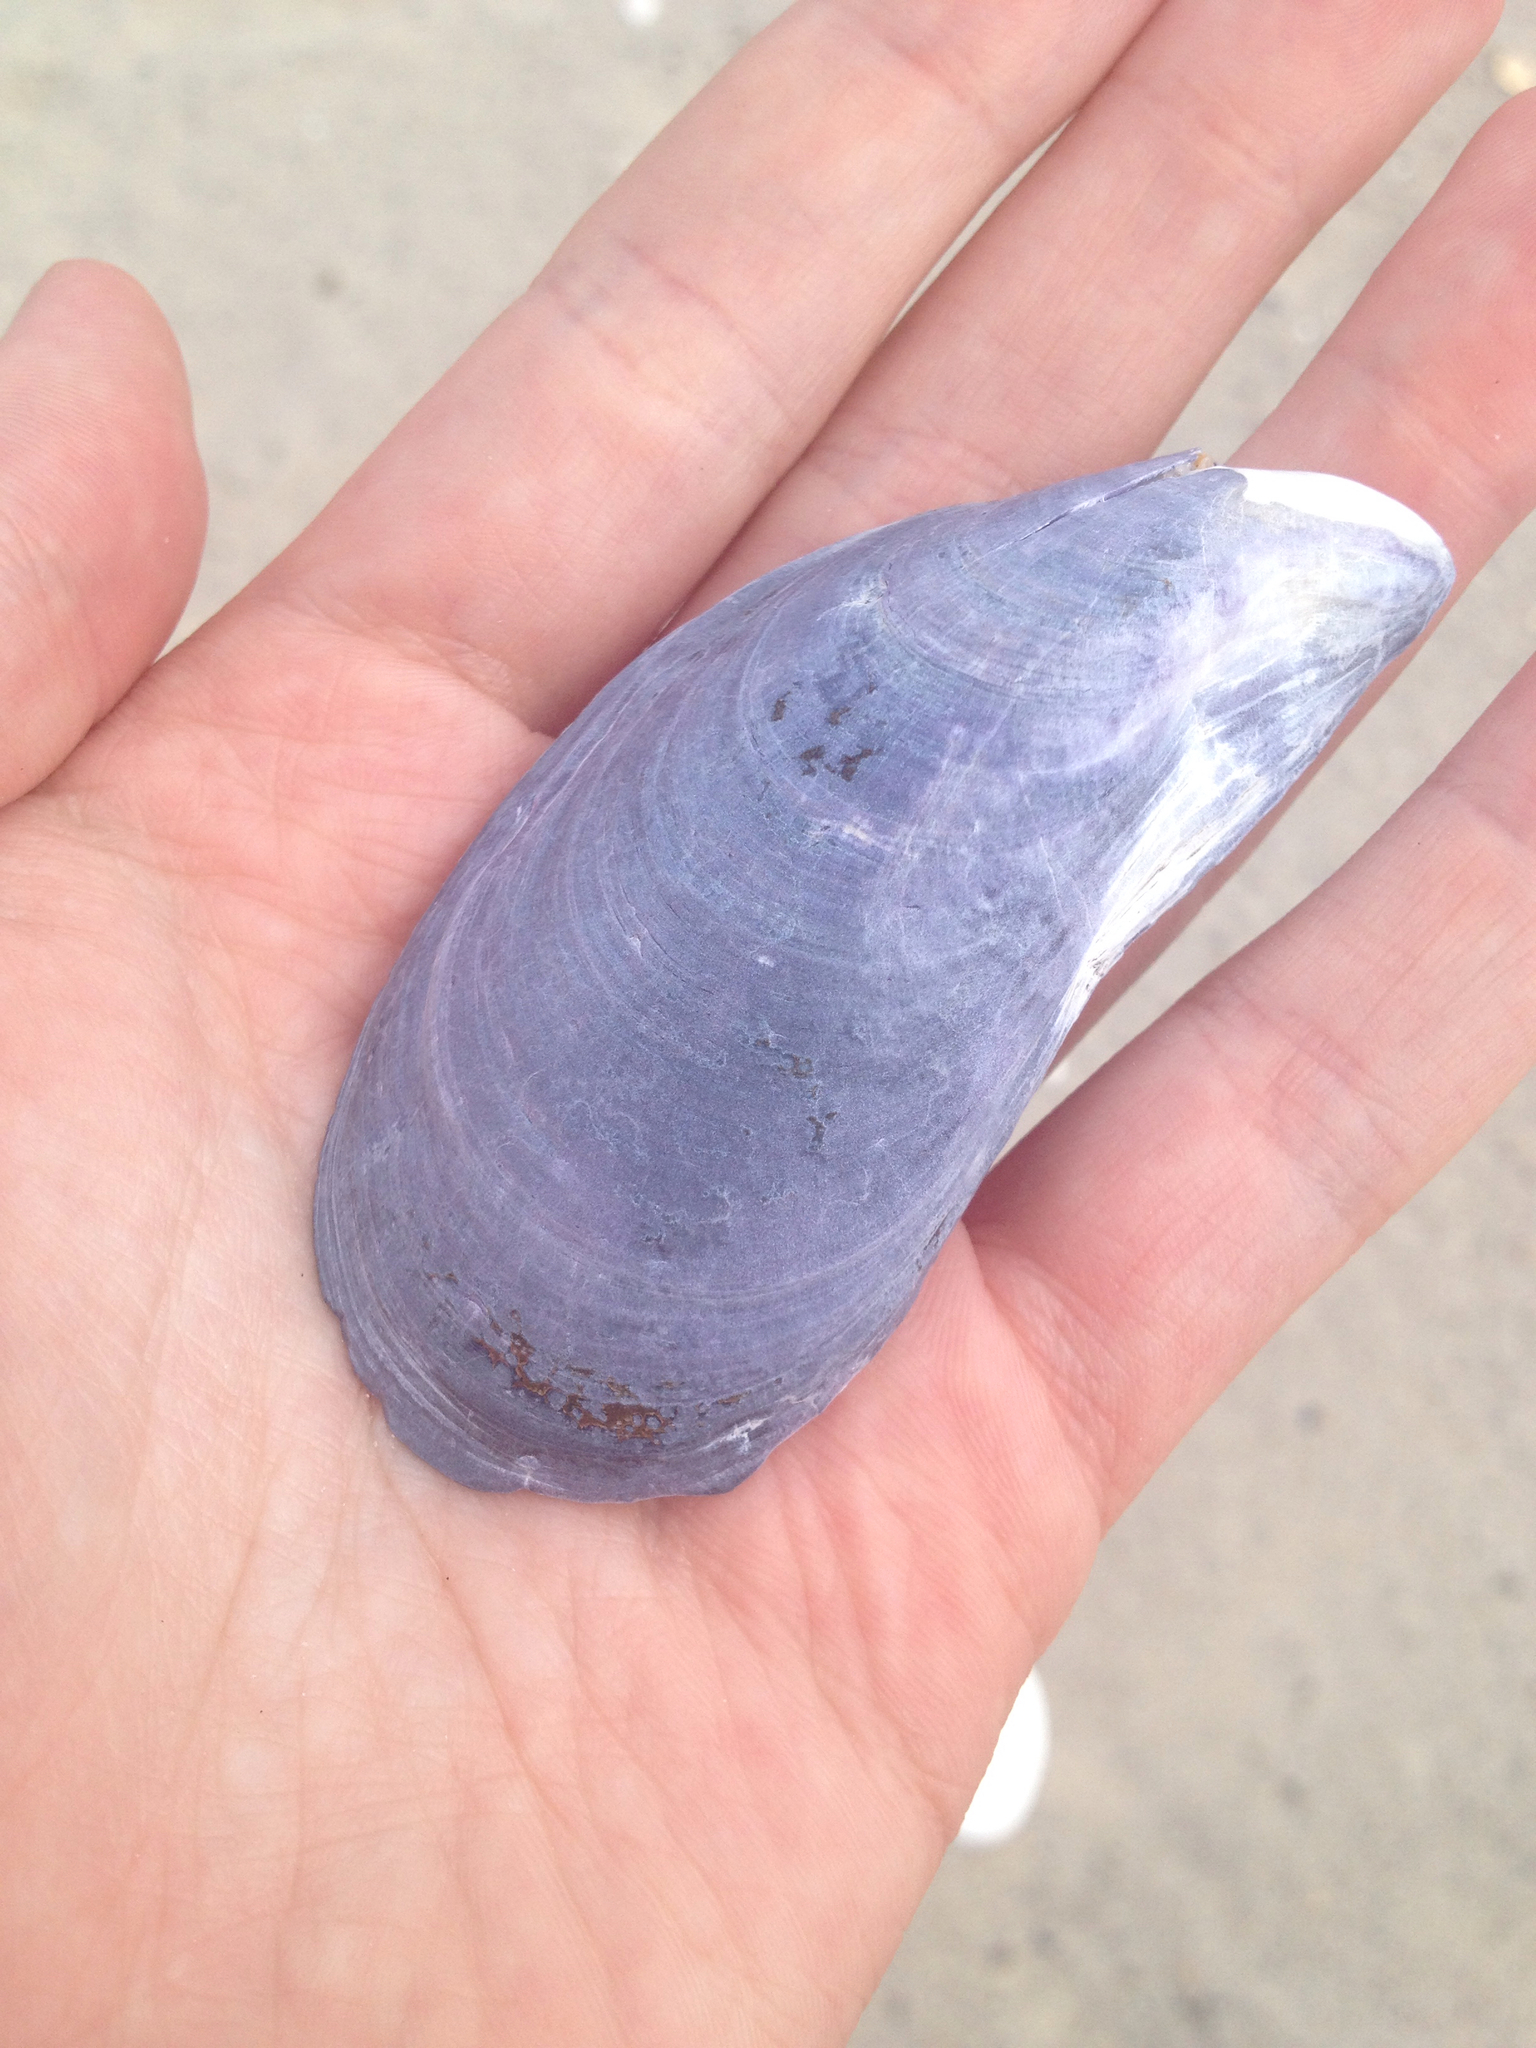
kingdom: Animalia
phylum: Mollusca
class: Bivalvia
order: Mytilida
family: Mytilidae
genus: Mytilus
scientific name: Mytilus edulis
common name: Blue mussel
